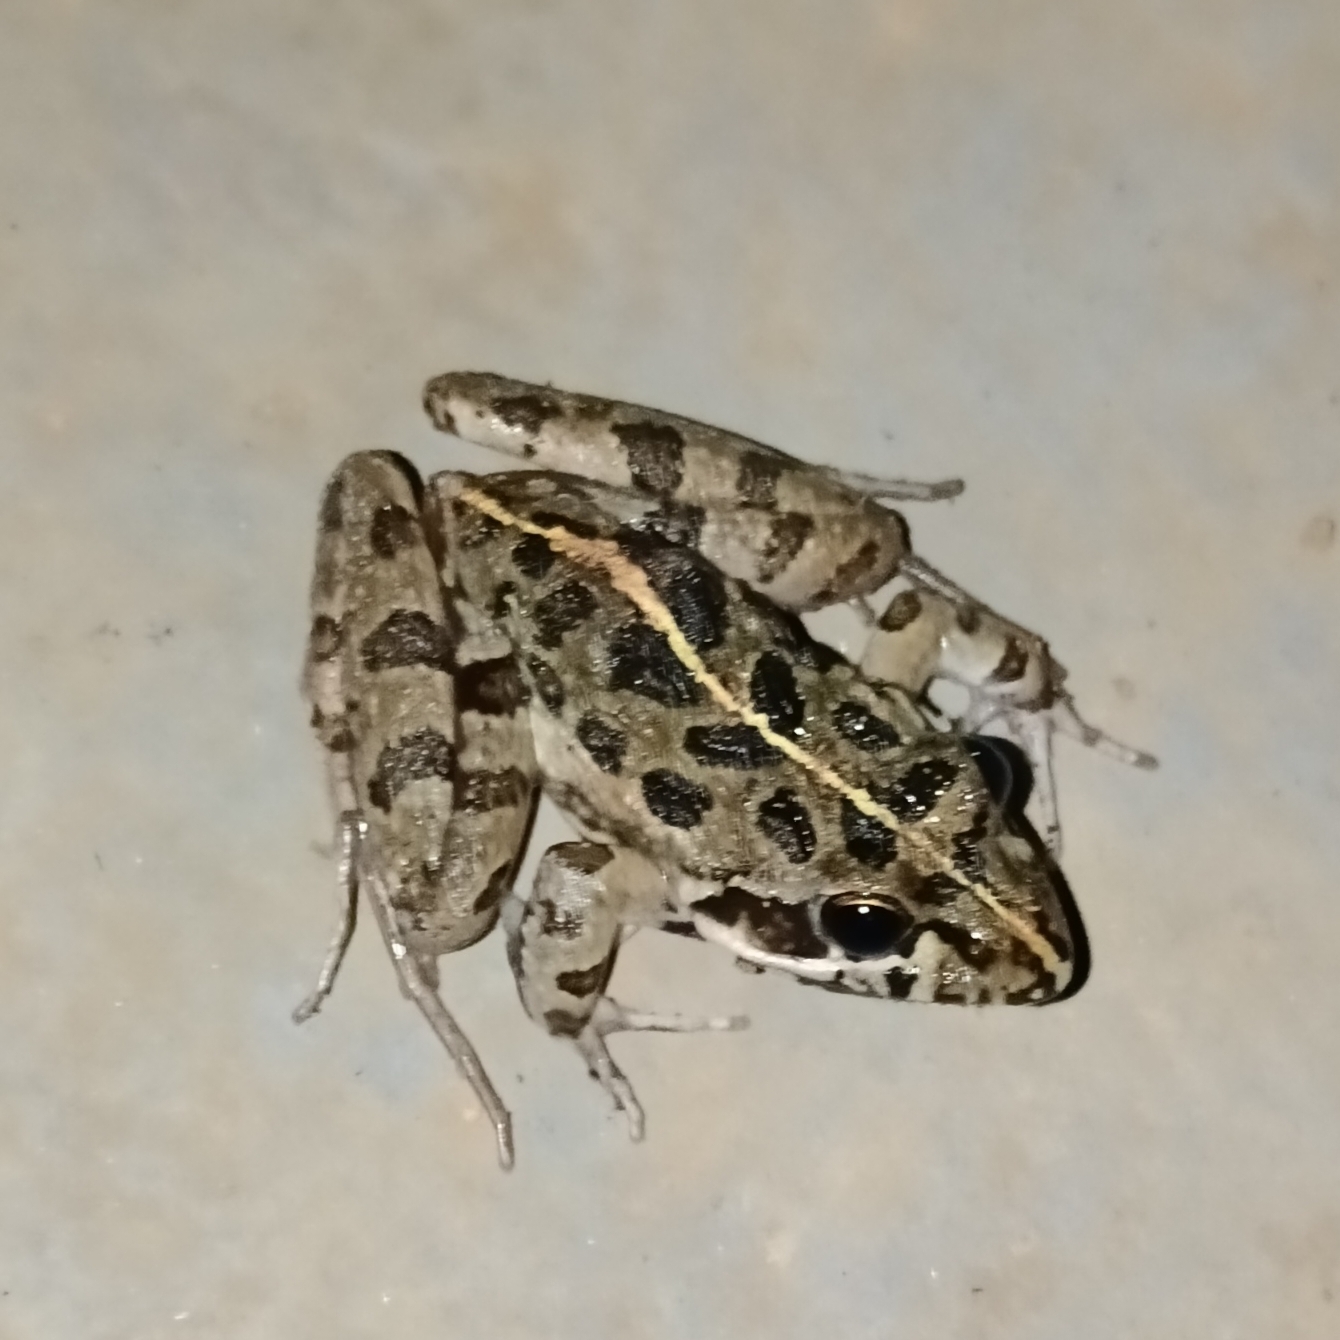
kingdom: Animalia
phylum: Chordata
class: Amphibia
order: Anura
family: Pyxicephalidae
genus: Strongylopus
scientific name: Strongylopus grayii
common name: Gray's stream frog
